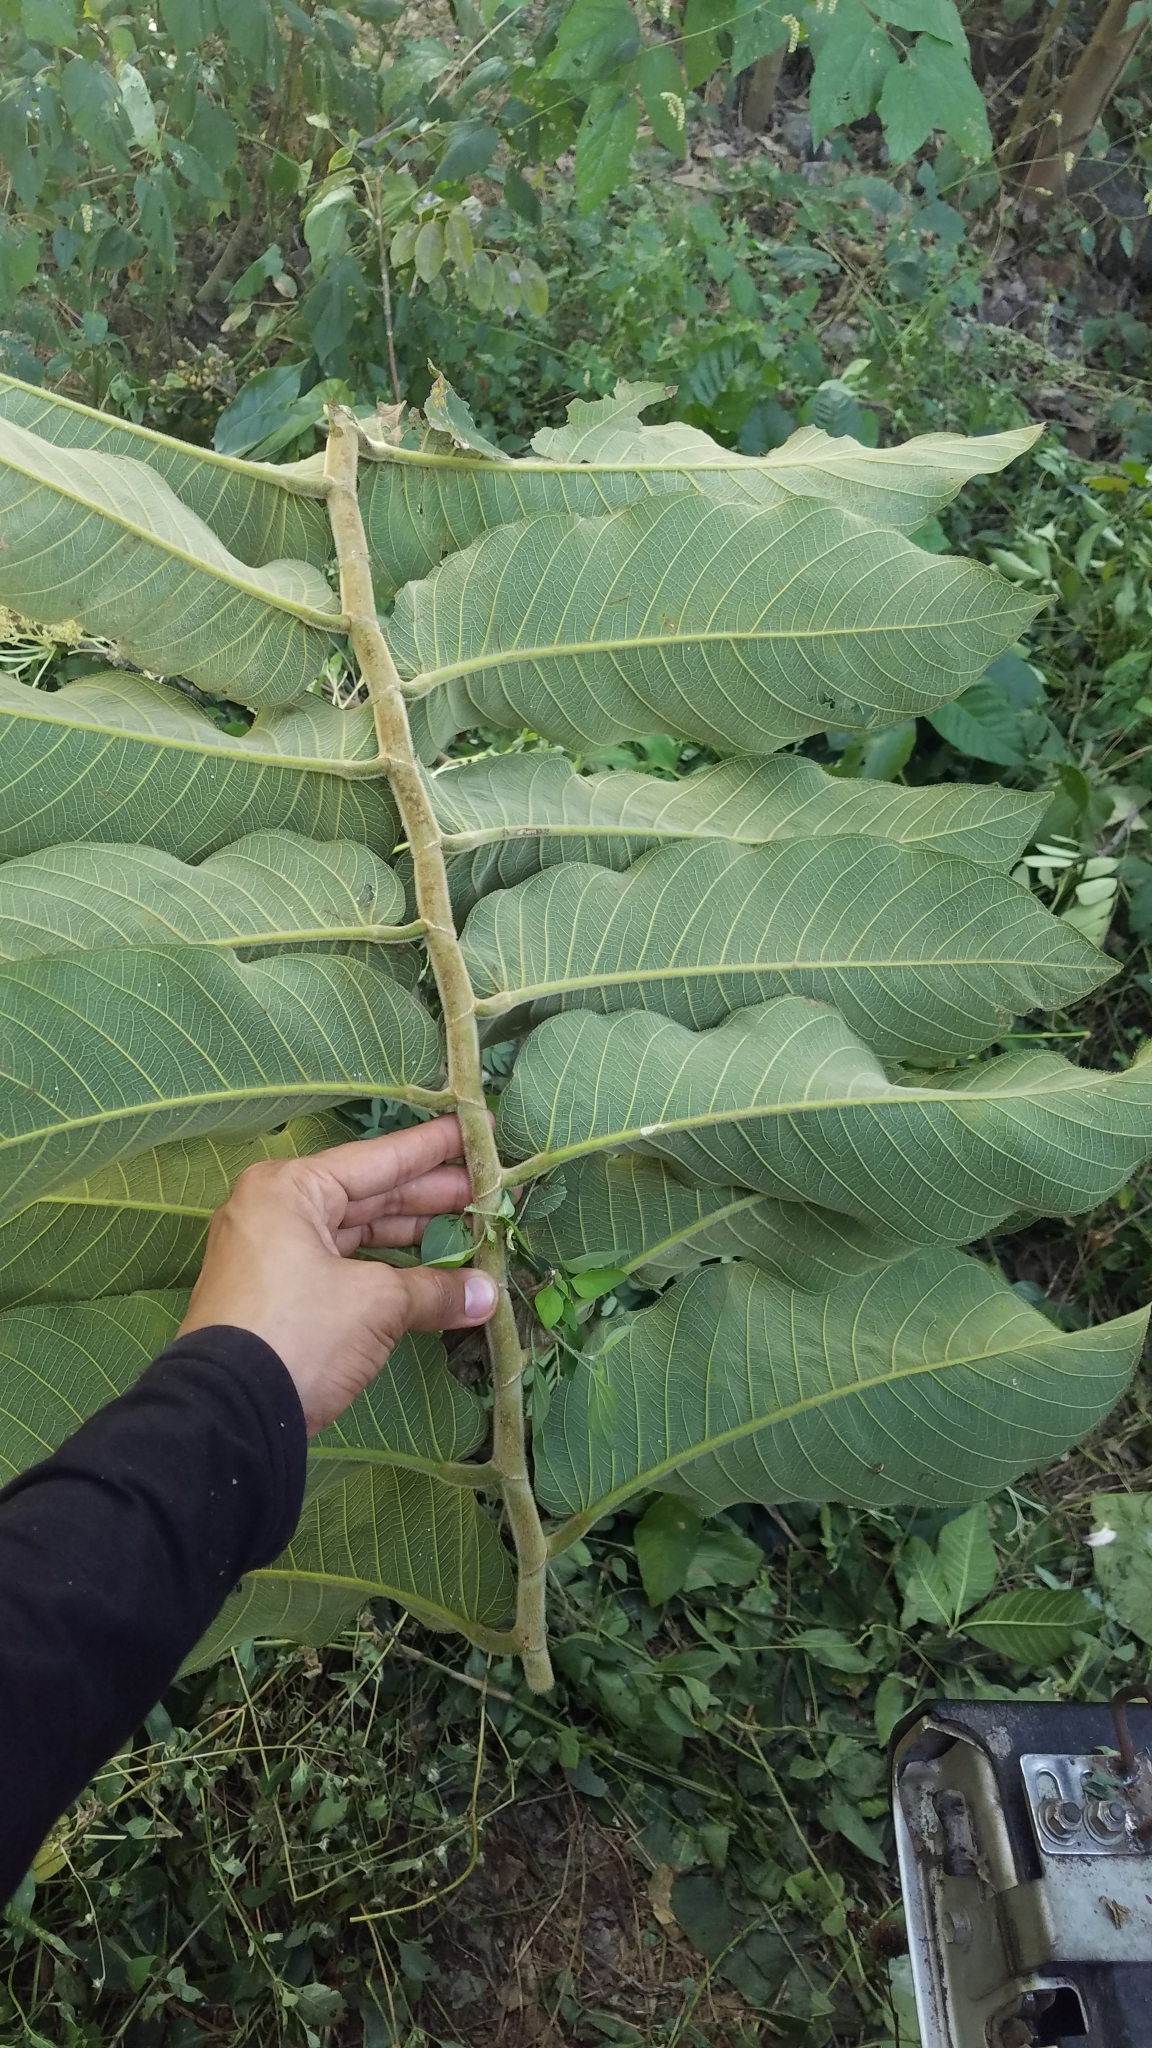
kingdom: Plantae
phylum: Tracheophyta
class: Magnoliopsida
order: Rosales
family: Moraceae
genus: Castilla
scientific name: Castilla elastica
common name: Castilla rubber
